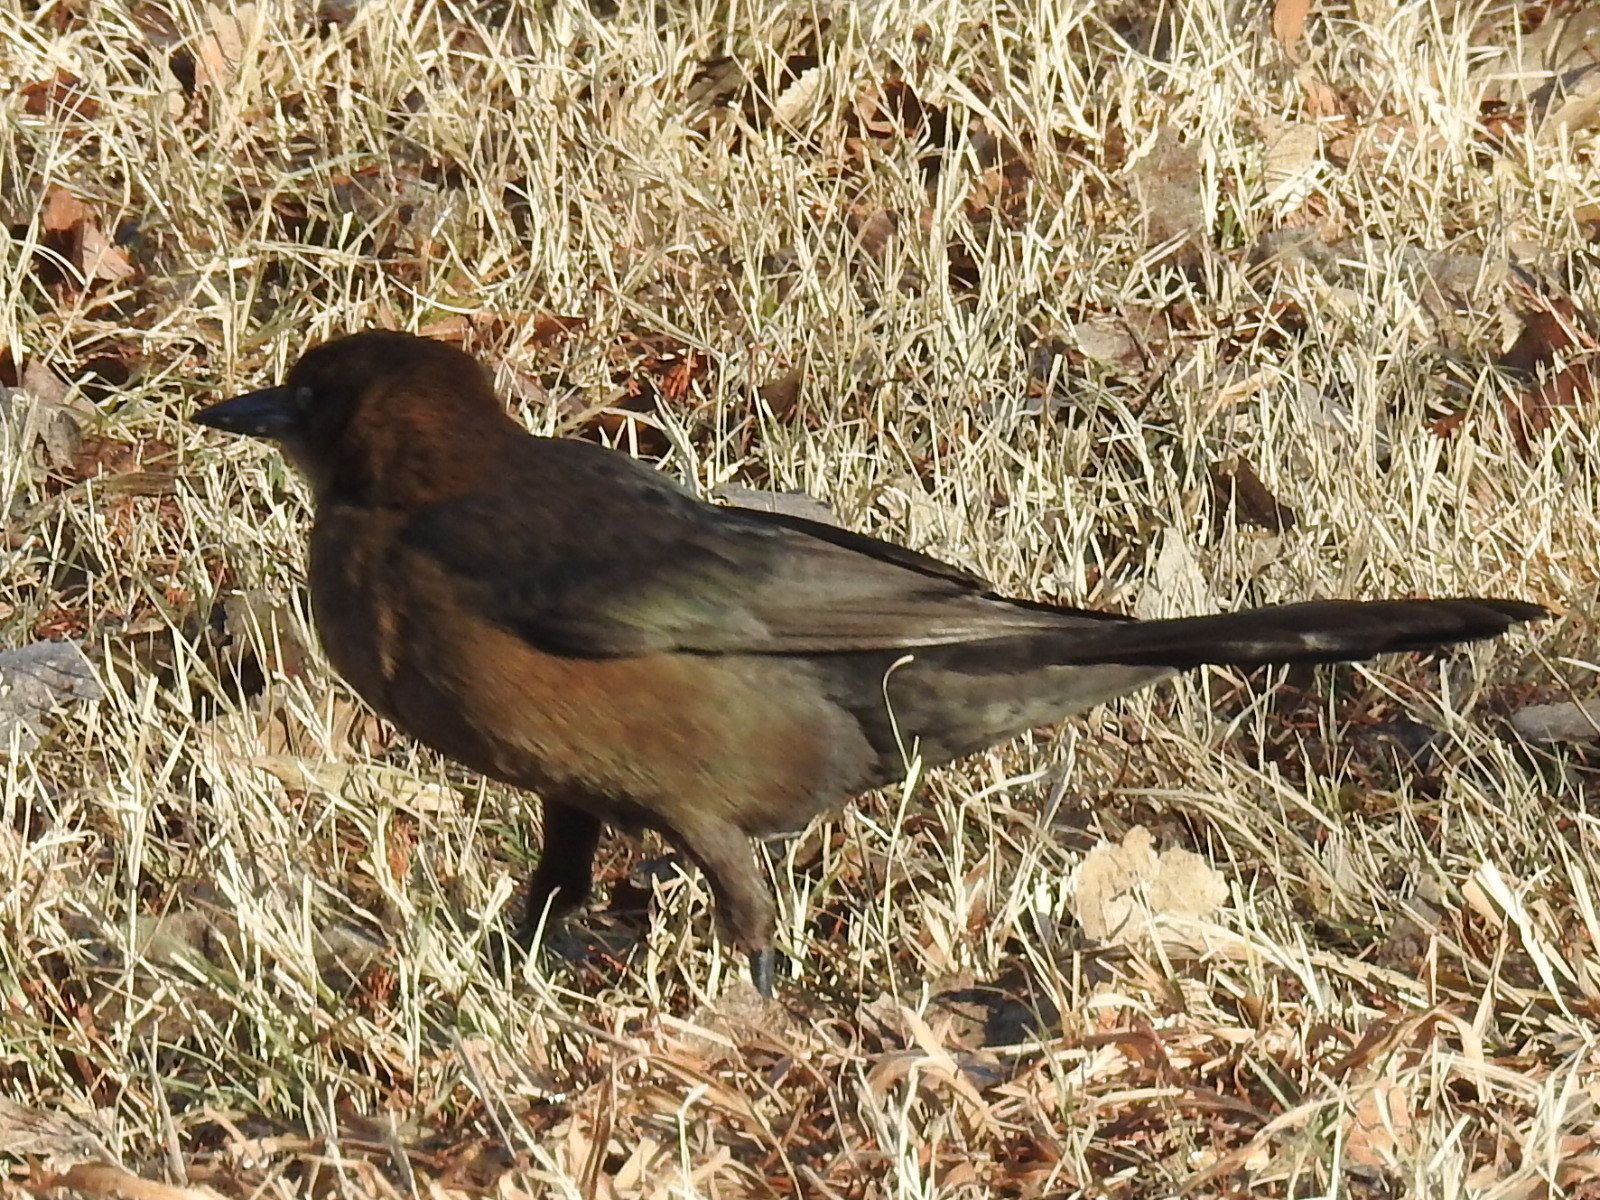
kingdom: Animalia
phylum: Chordata
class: Aves
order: Passeriformes
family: Icteridae
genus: Quiscalus
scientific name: Quiscalus mexicanus
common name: Great-tailed grackle
